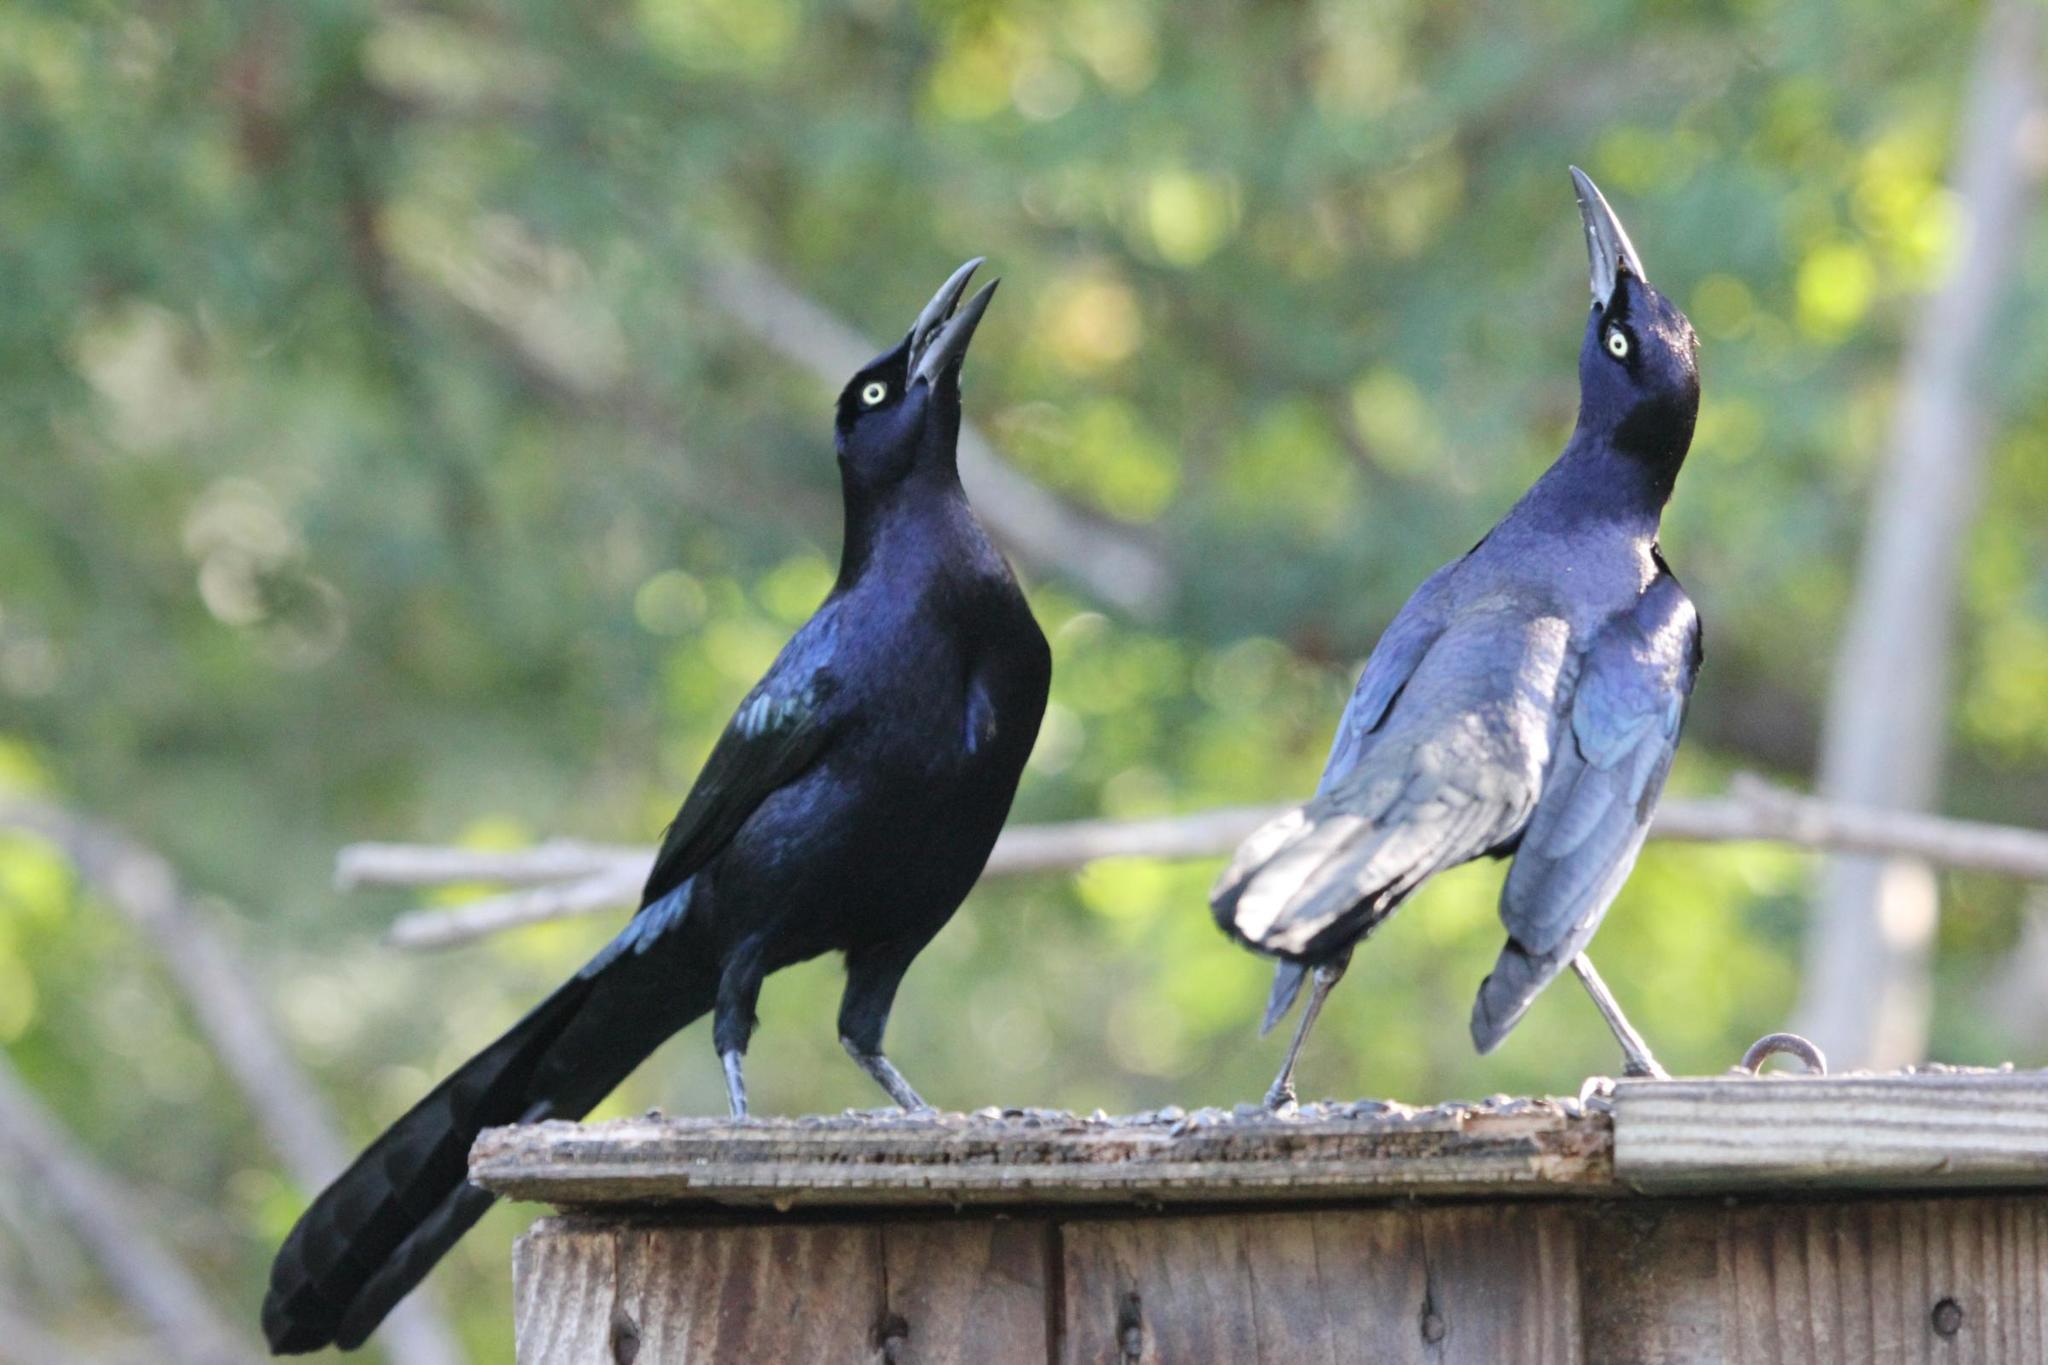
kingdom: Animalia
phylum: Chordata
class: Aves
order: Passeriformes
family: Icteridae
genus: Quiscalus
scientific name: Quiscalus mexicanus
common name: Great-tailed grackle
